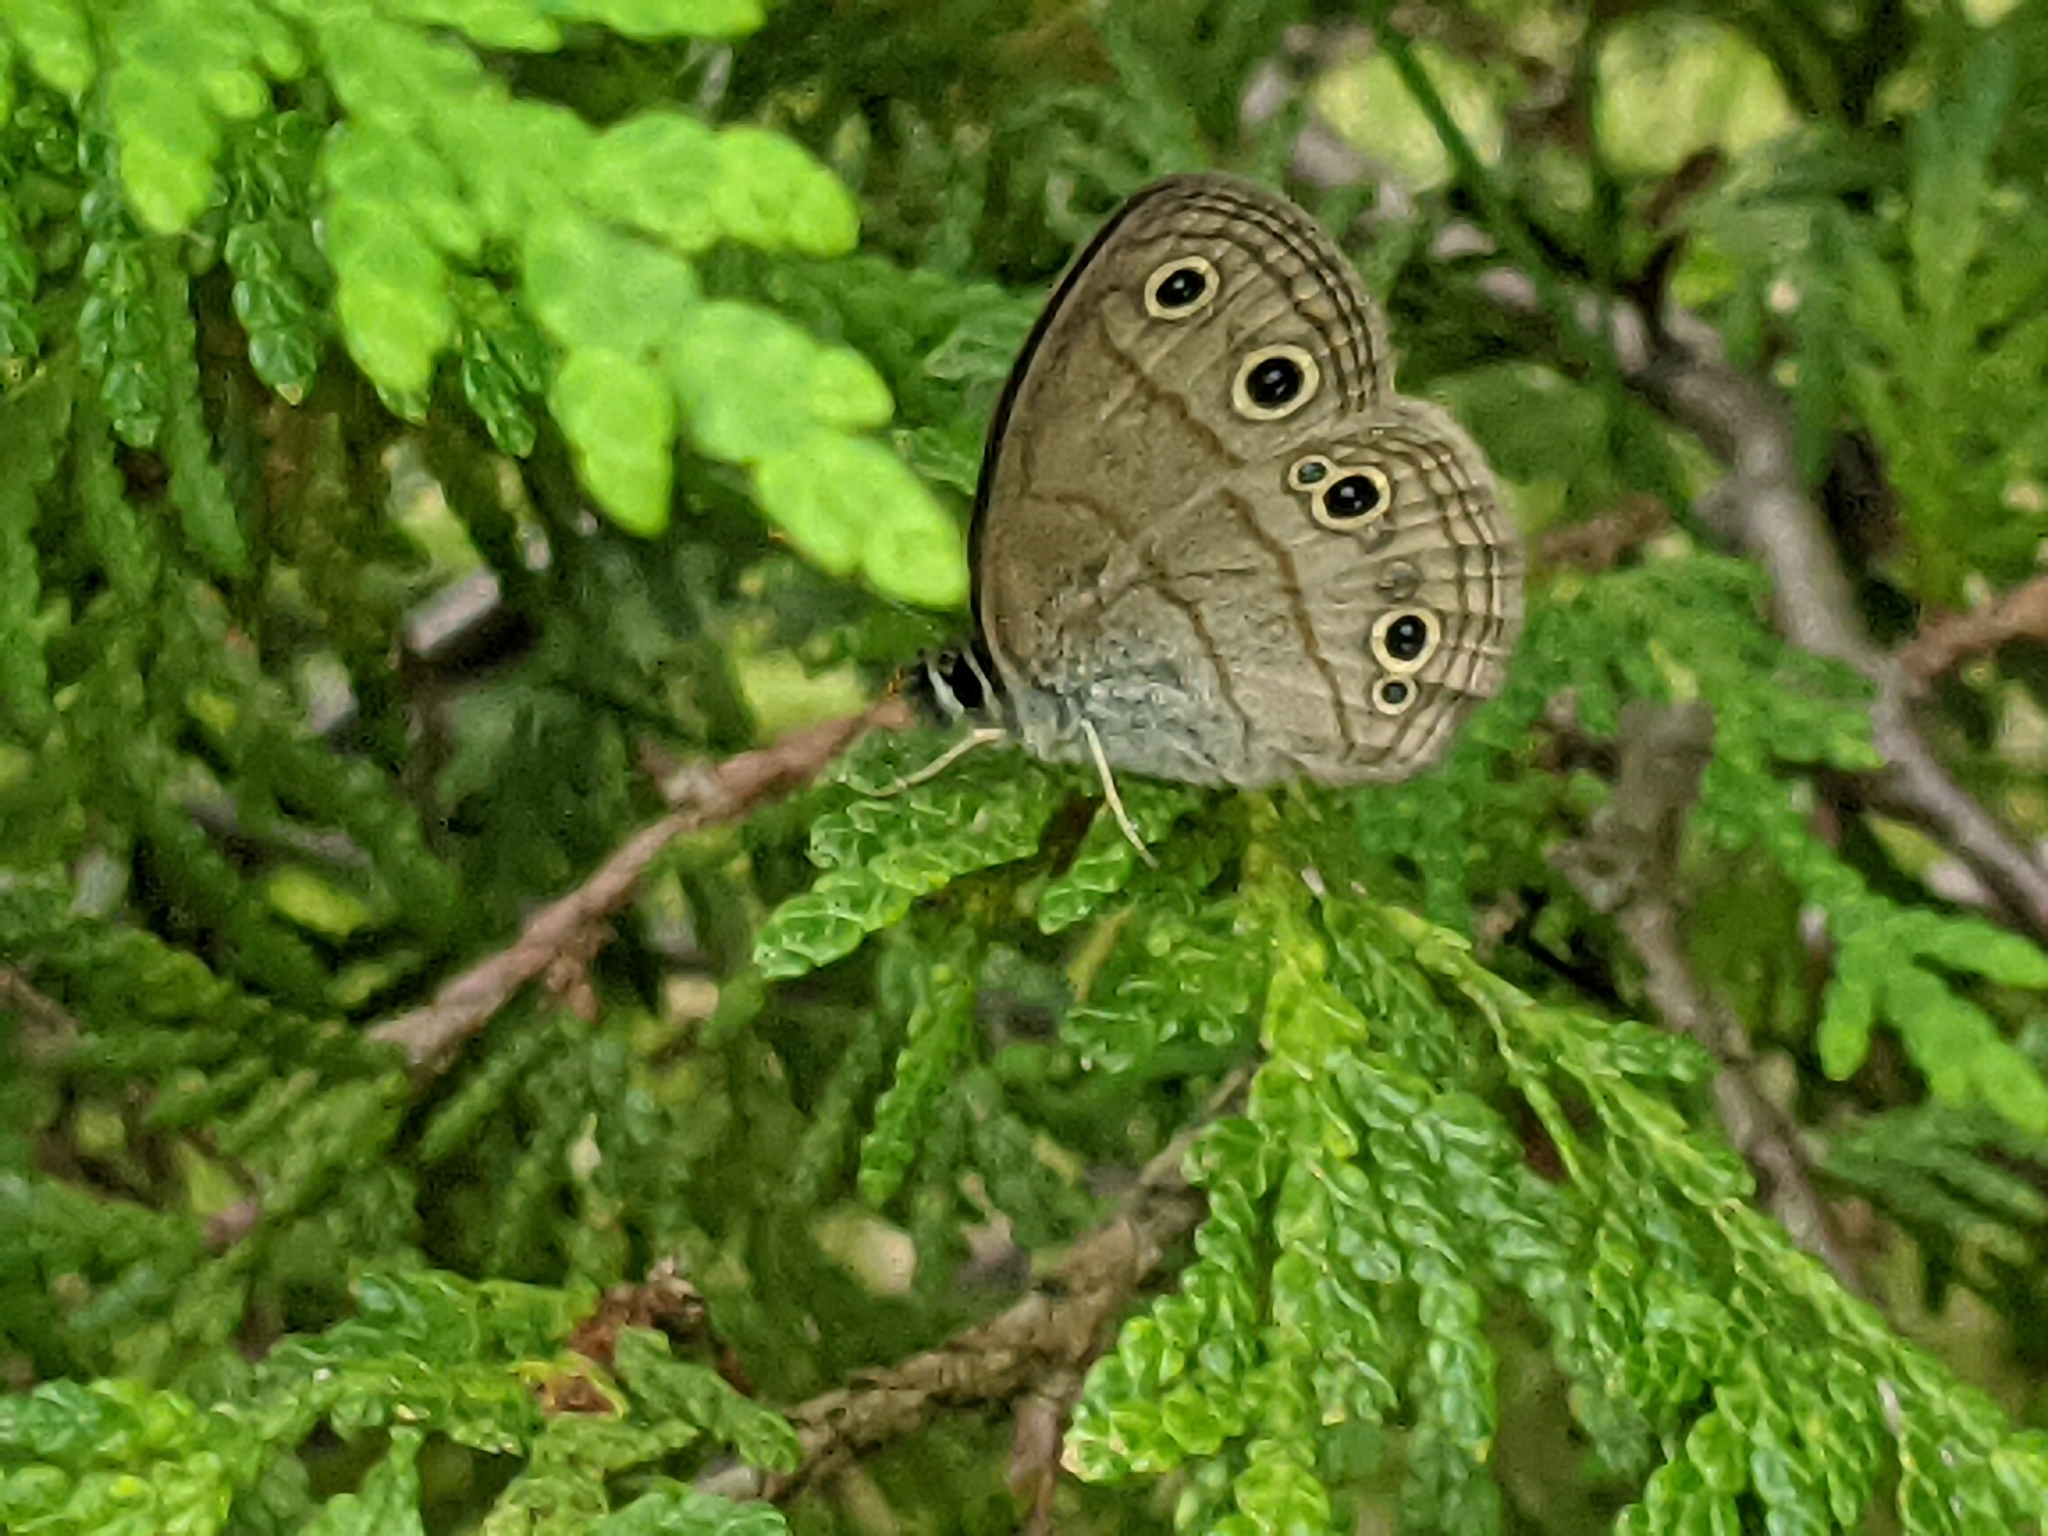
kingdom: Animalia
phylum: Arthropoda
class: Insecta
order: Lepidoptera
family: Nymphalidae
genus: Euptychia
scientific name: Euptychia cymela
